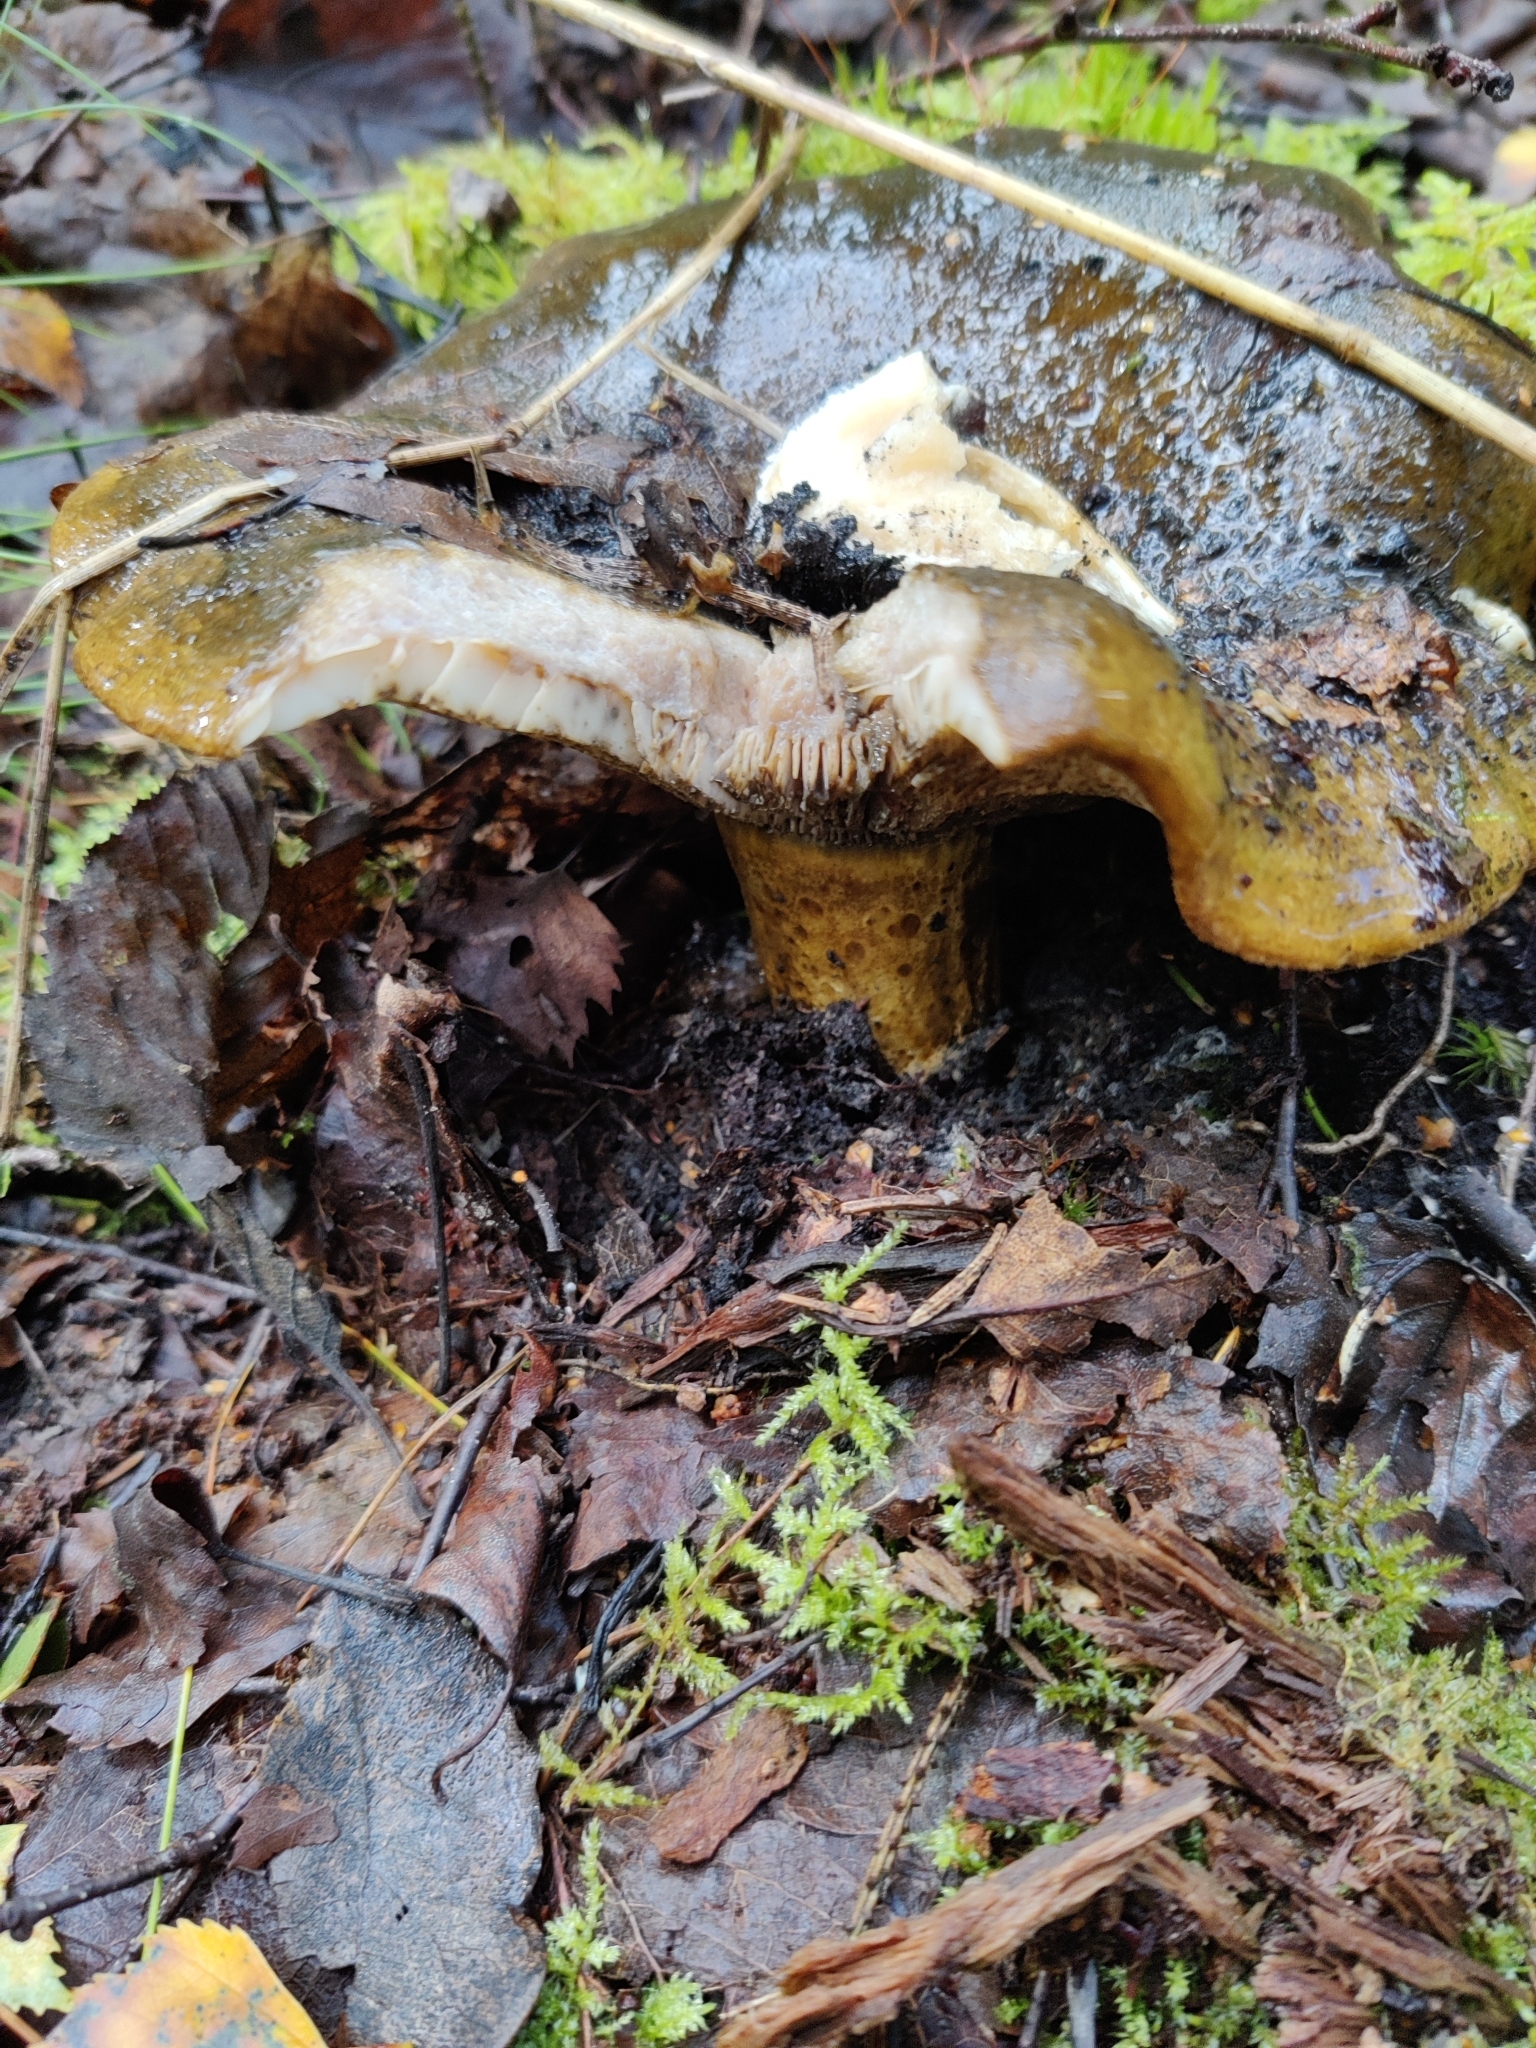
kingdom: Fungi
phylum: Basidiomycota
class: Agaricomycetes
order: Russulales
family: Russulaceae
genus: Lactarius
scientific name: Lactarius turpis
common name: Ugly milk-cap
